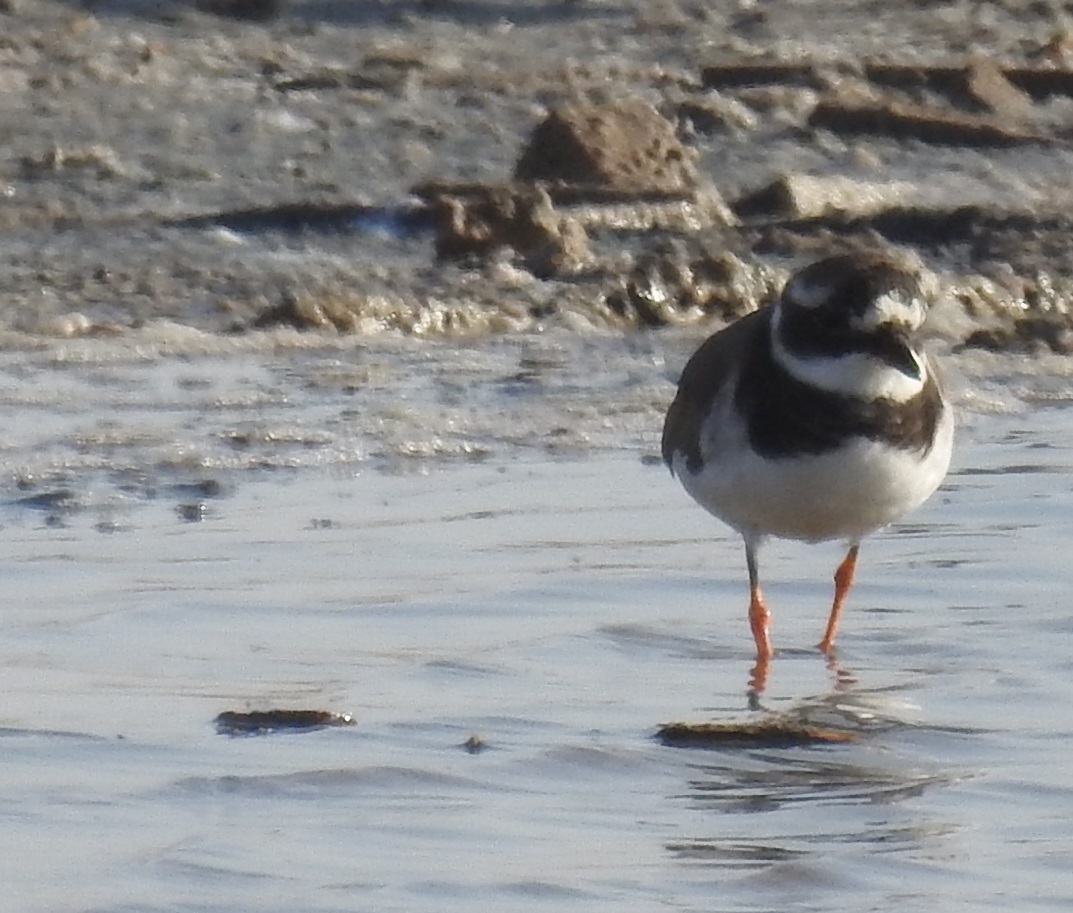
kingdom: Animalia
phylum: Chordata
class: Aves
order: Charadriiformes
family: Charadriidae
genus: Charadrius
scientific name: Charadrius hiaticula
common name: Common ringed plover
